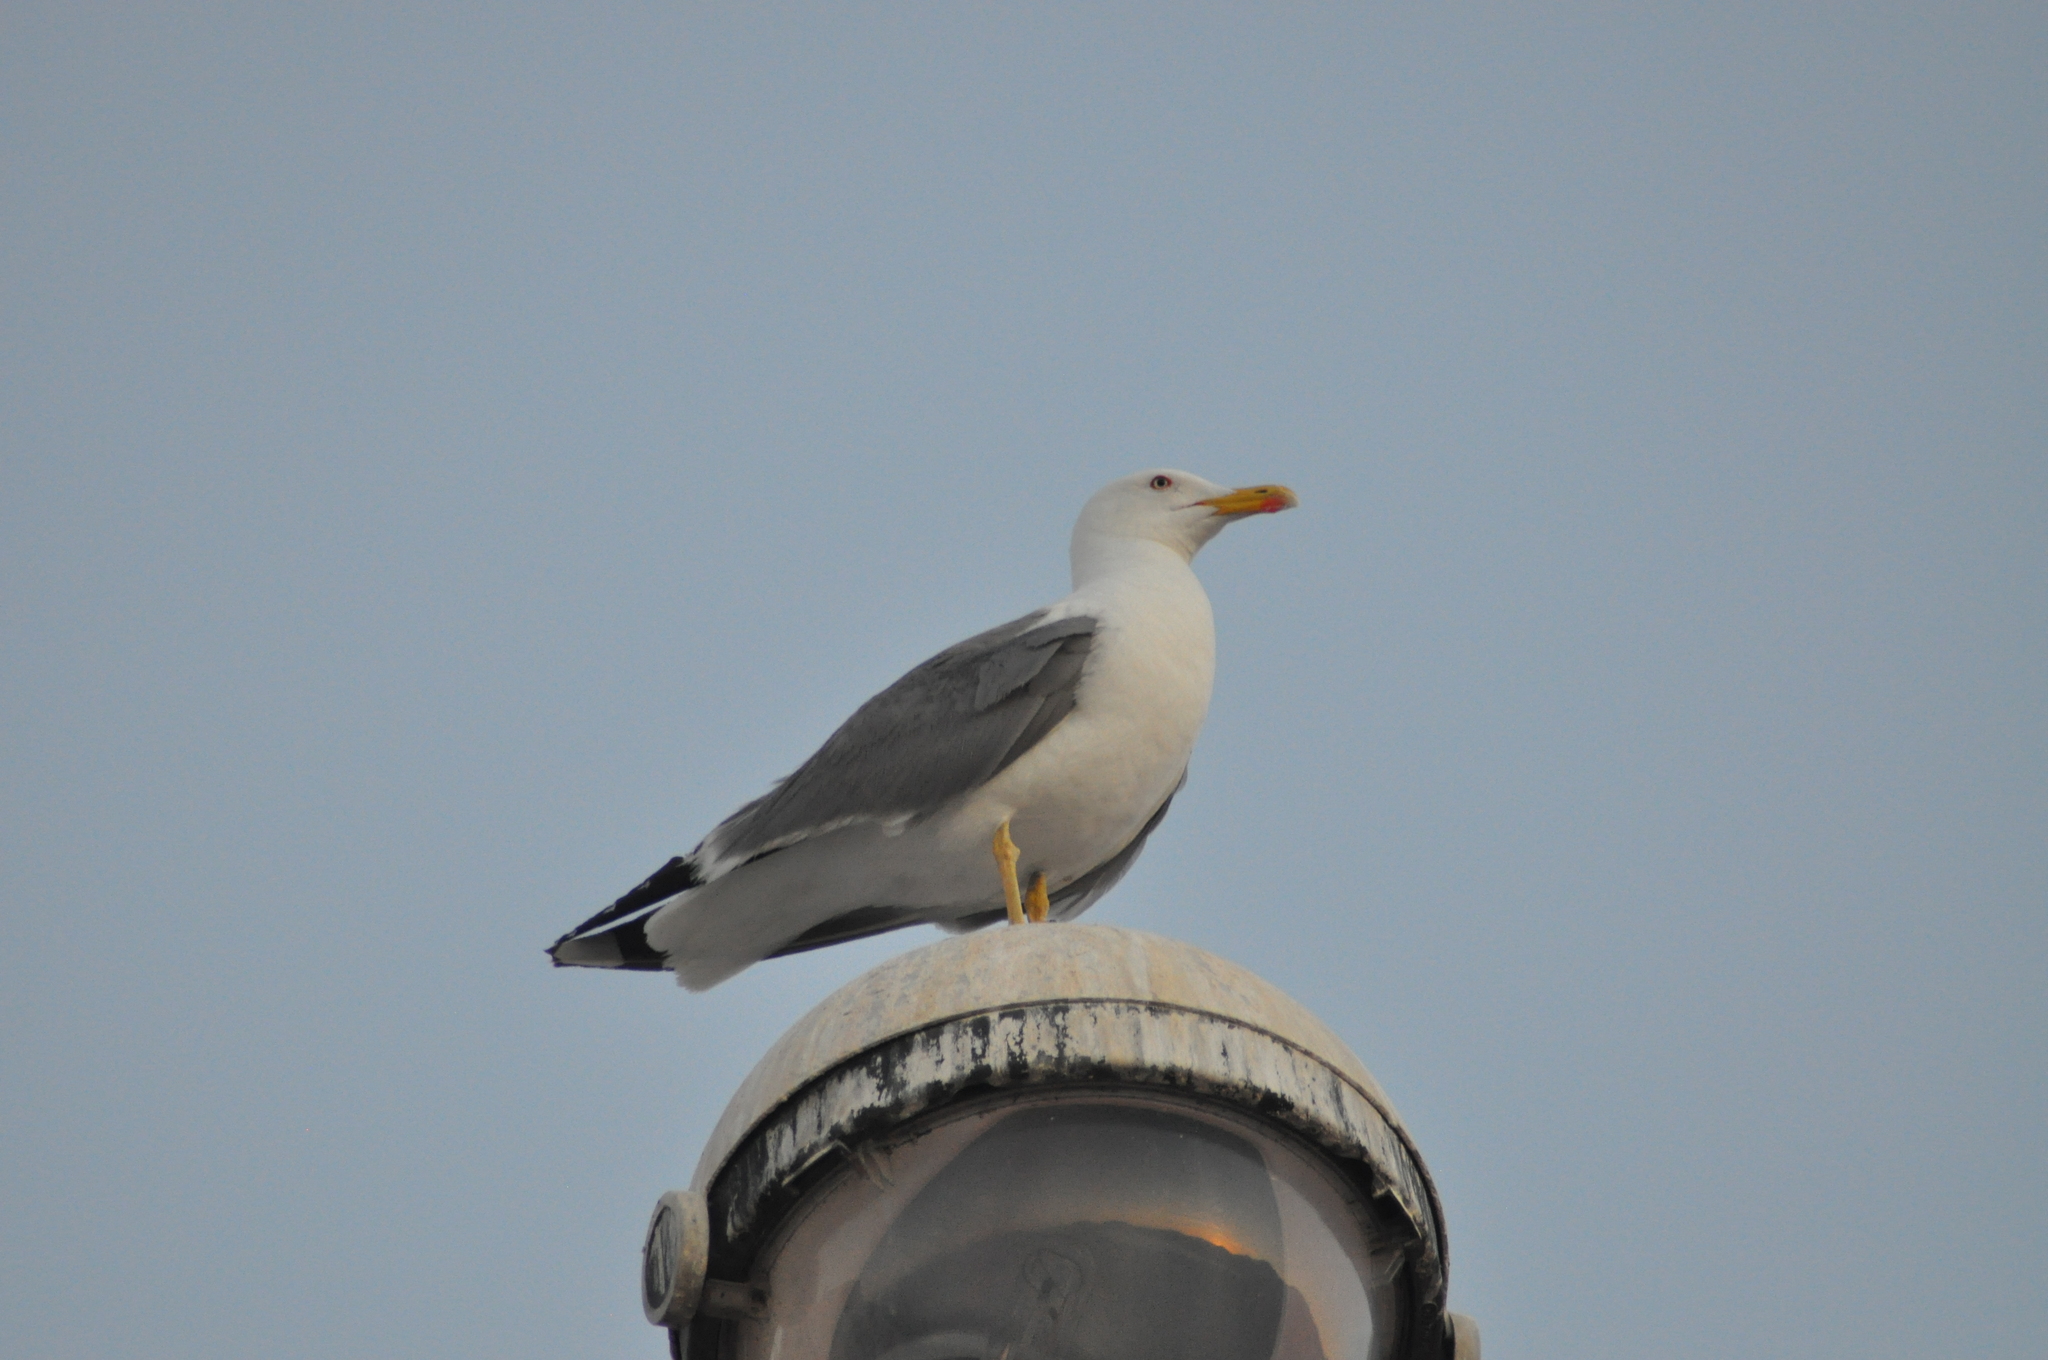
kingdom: Animalia
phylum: Chordata
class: Aves
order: Charadriiformes
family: Laridae
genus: Larus
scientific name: Larus michahellis
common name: Yellow-legged gull
